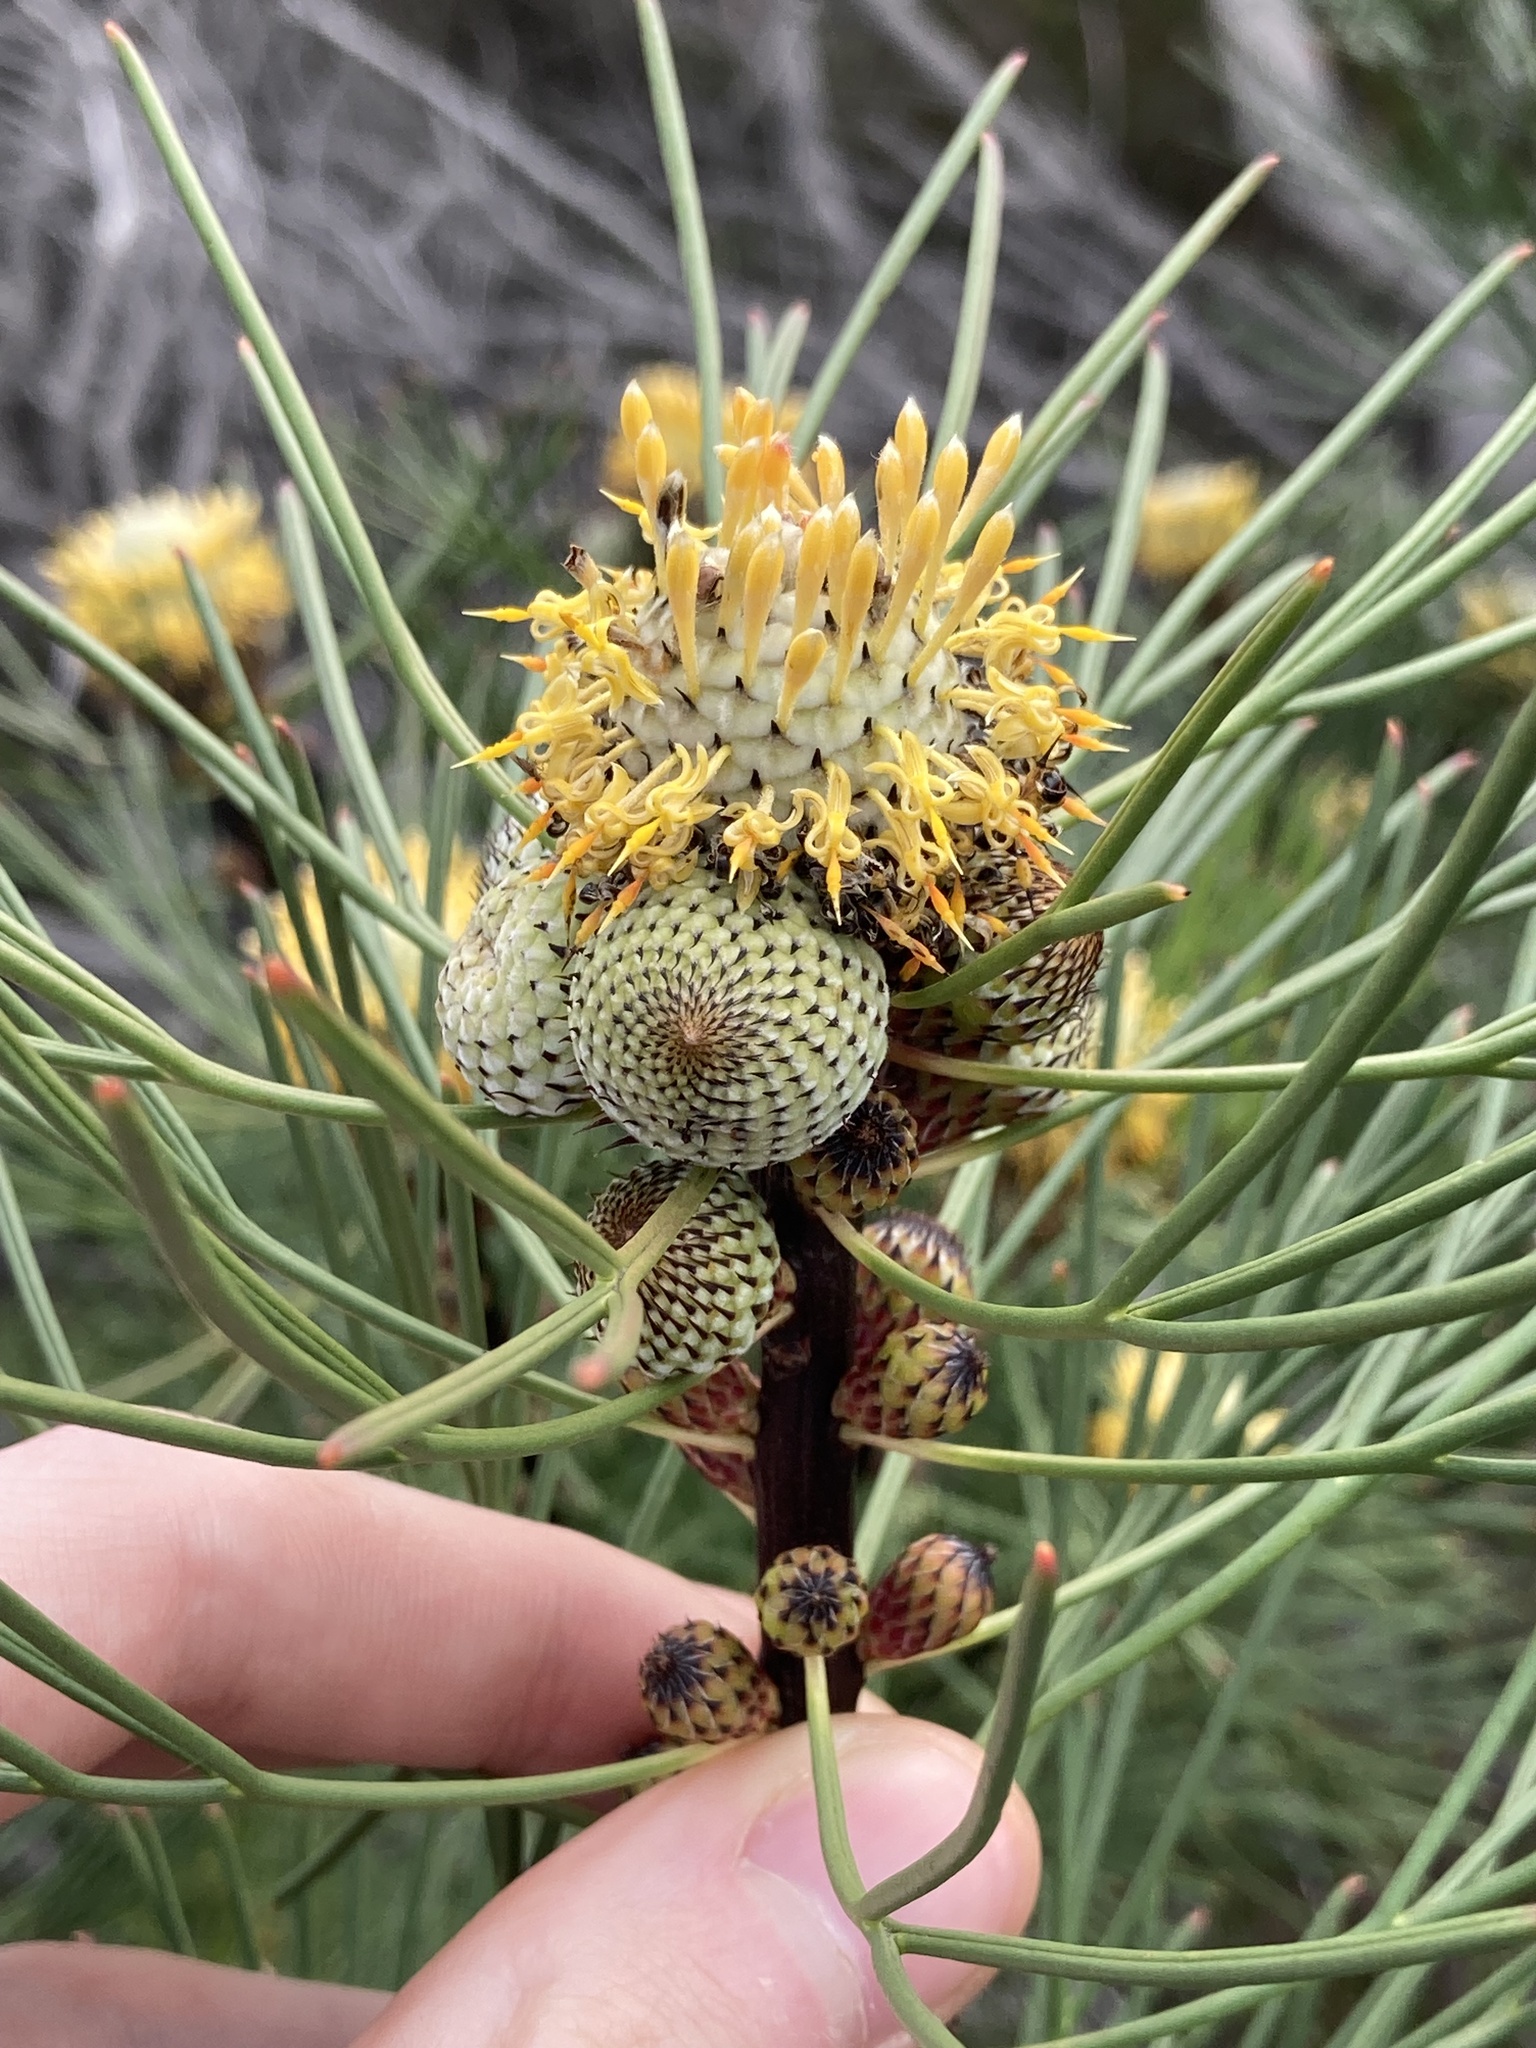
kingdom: Plantae
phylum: Tracheophyta
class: Magnoliopsida
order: Proteales
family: Proteaceae
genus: Isopogon
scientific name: Isopogon anethifolius
